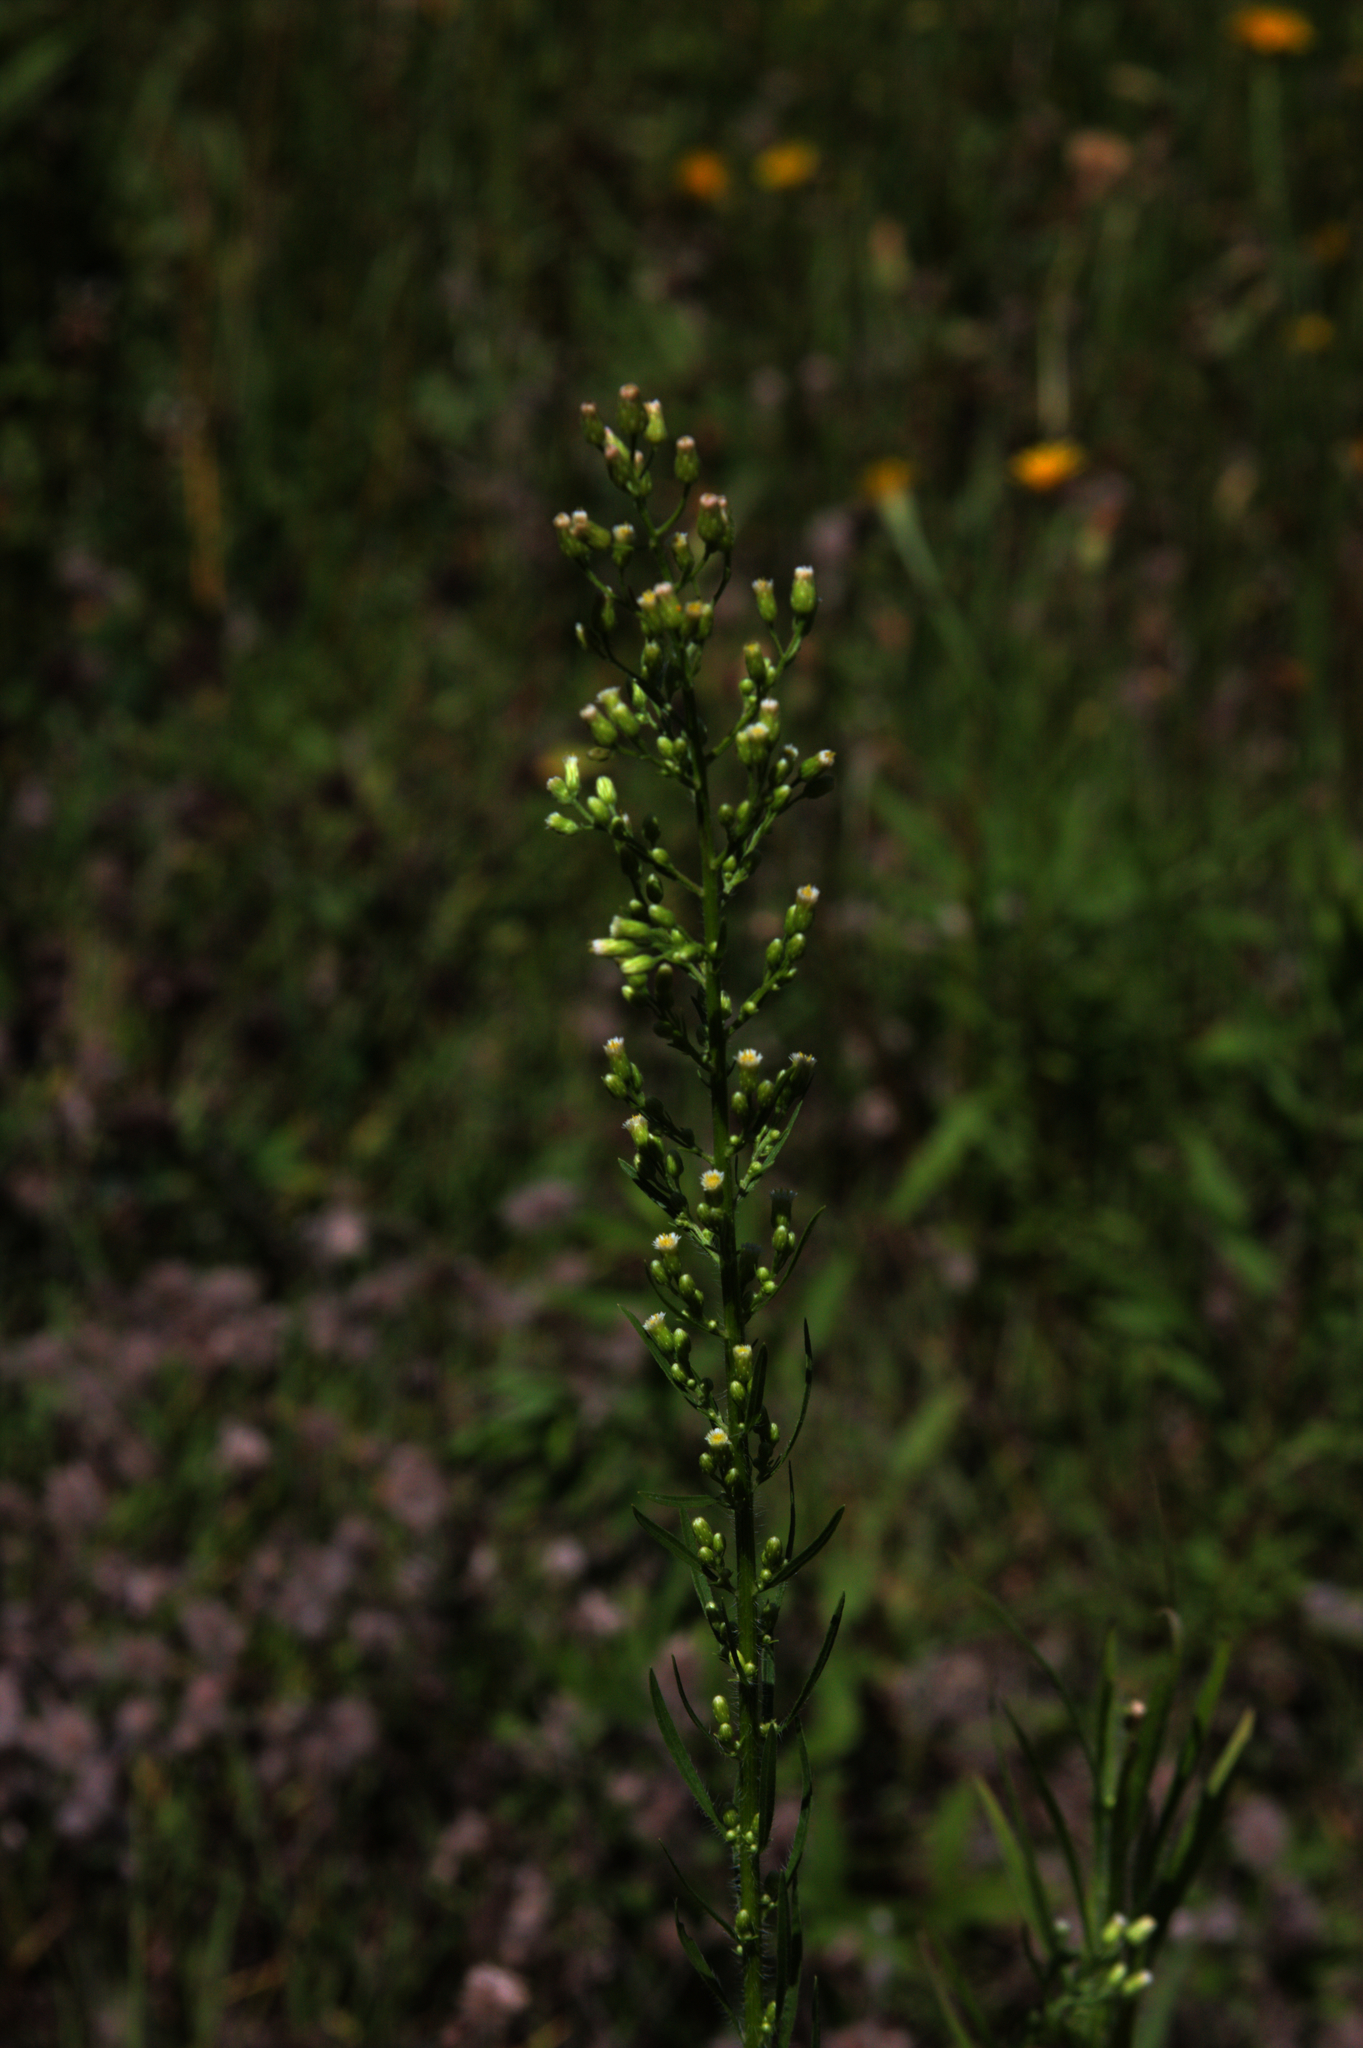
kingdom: Plantae
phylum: Tracheophyta
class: Magnoliopsida
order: Asterales
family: Asteraceae
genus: Erigeron
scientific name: Erigeron canadensis
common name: Canadian fleabane
